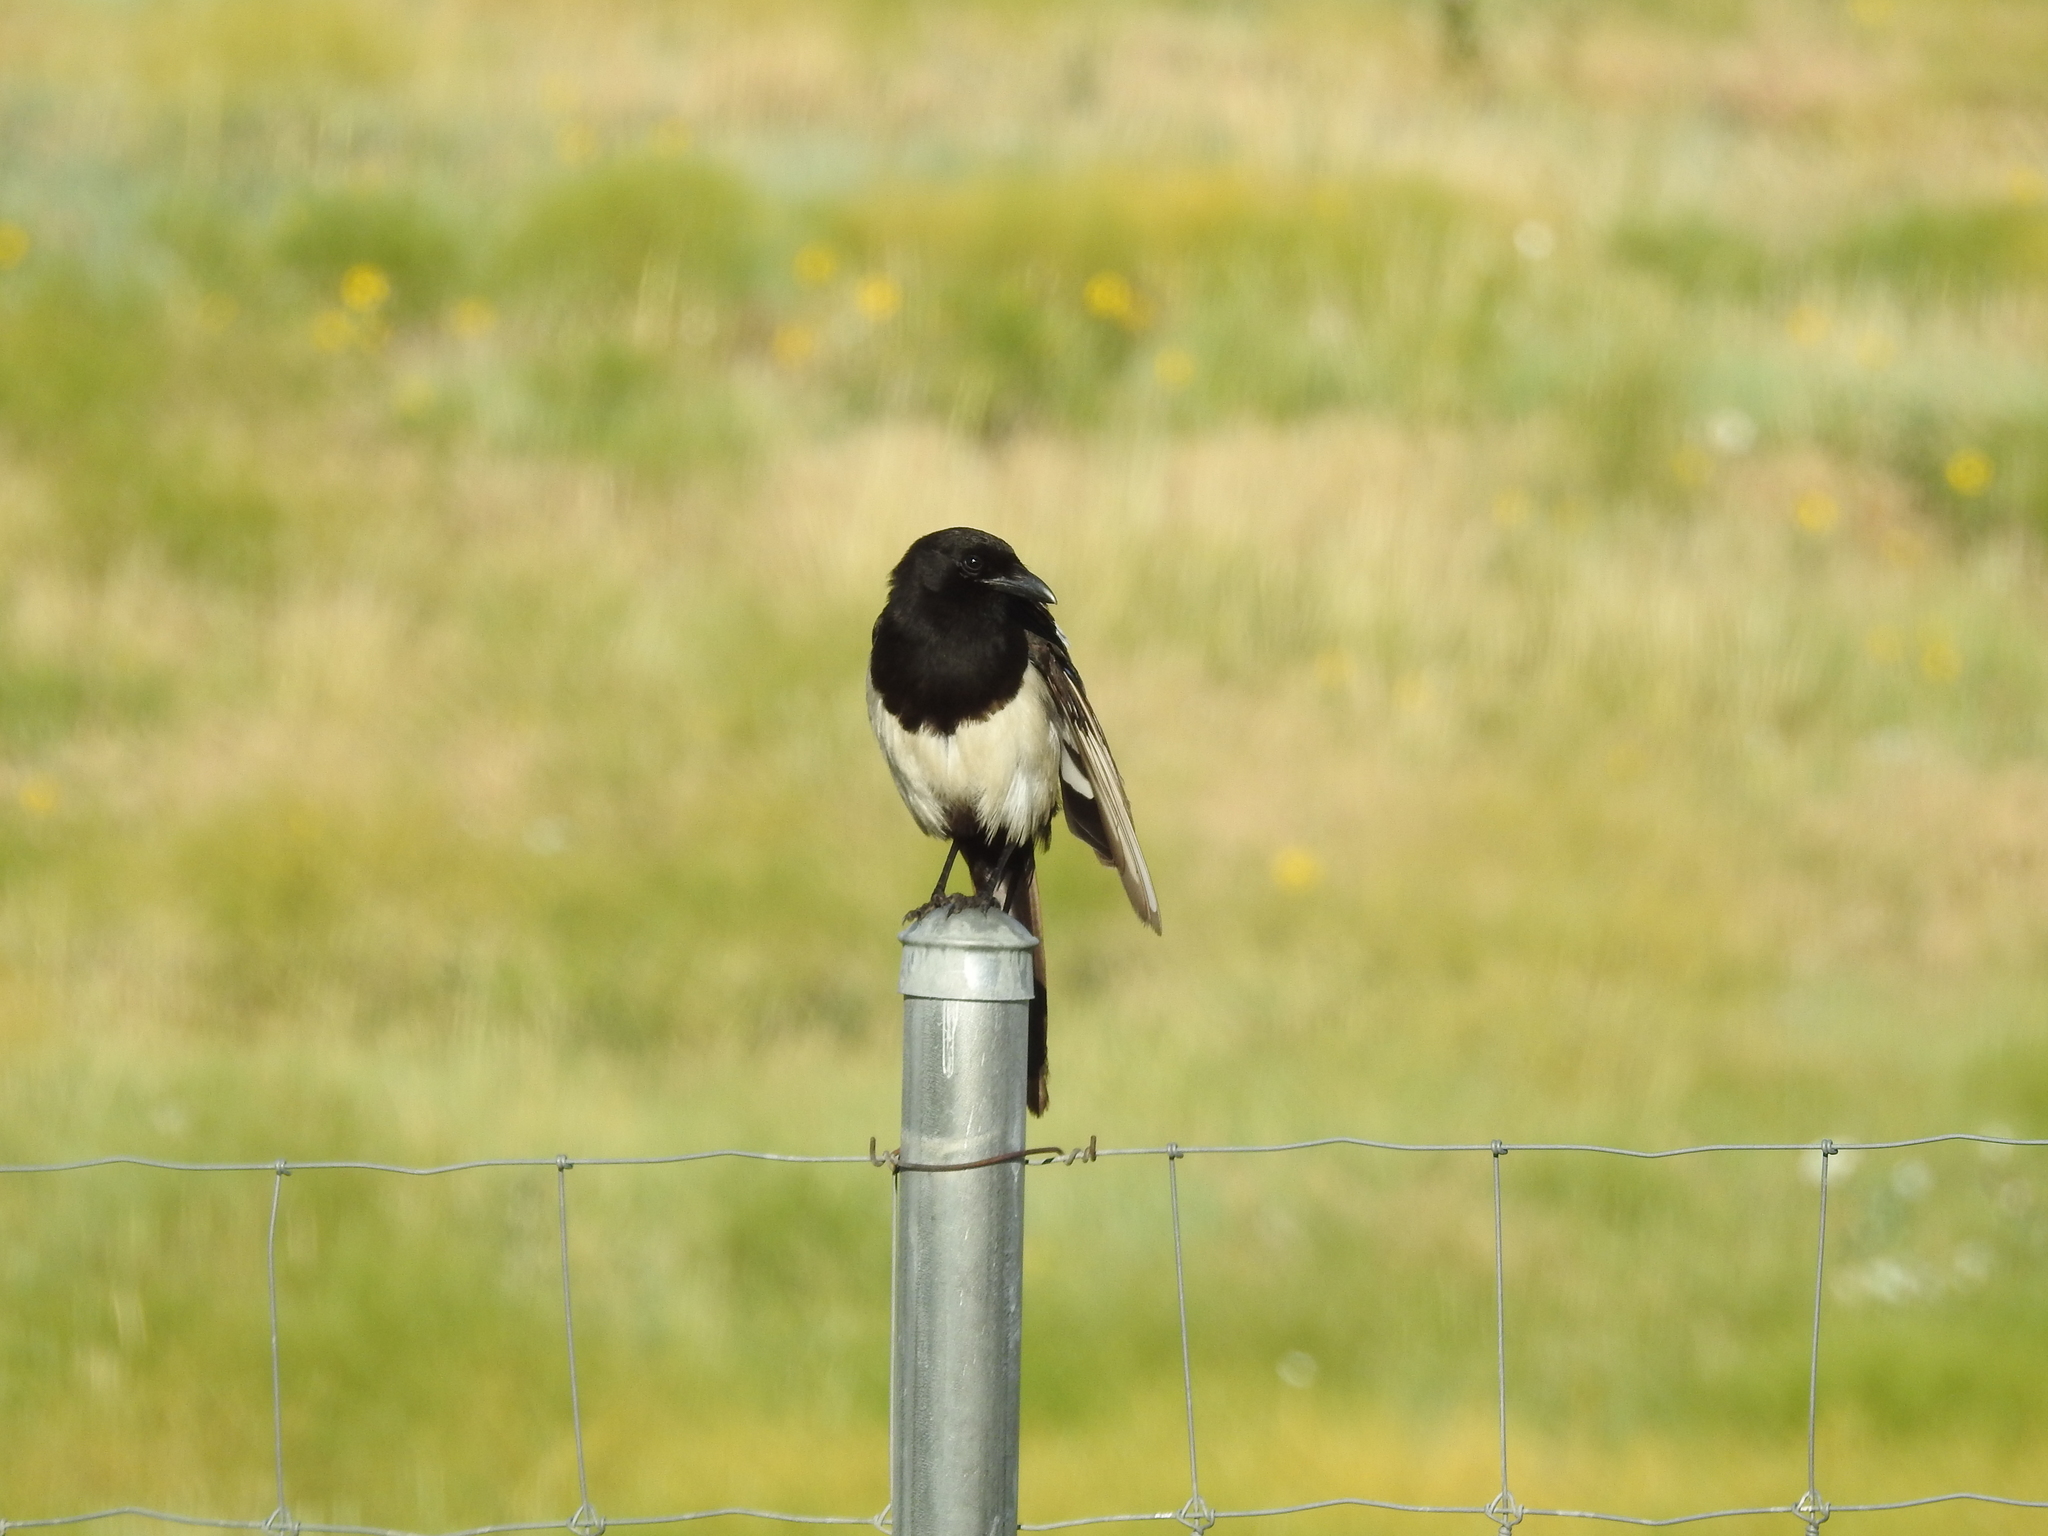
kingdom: Animalia
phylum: Chordata
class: Aves
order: Passeriformes
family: Corvidae
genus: Pica
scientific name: Pica hudsonia
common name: Black-billed magpie
